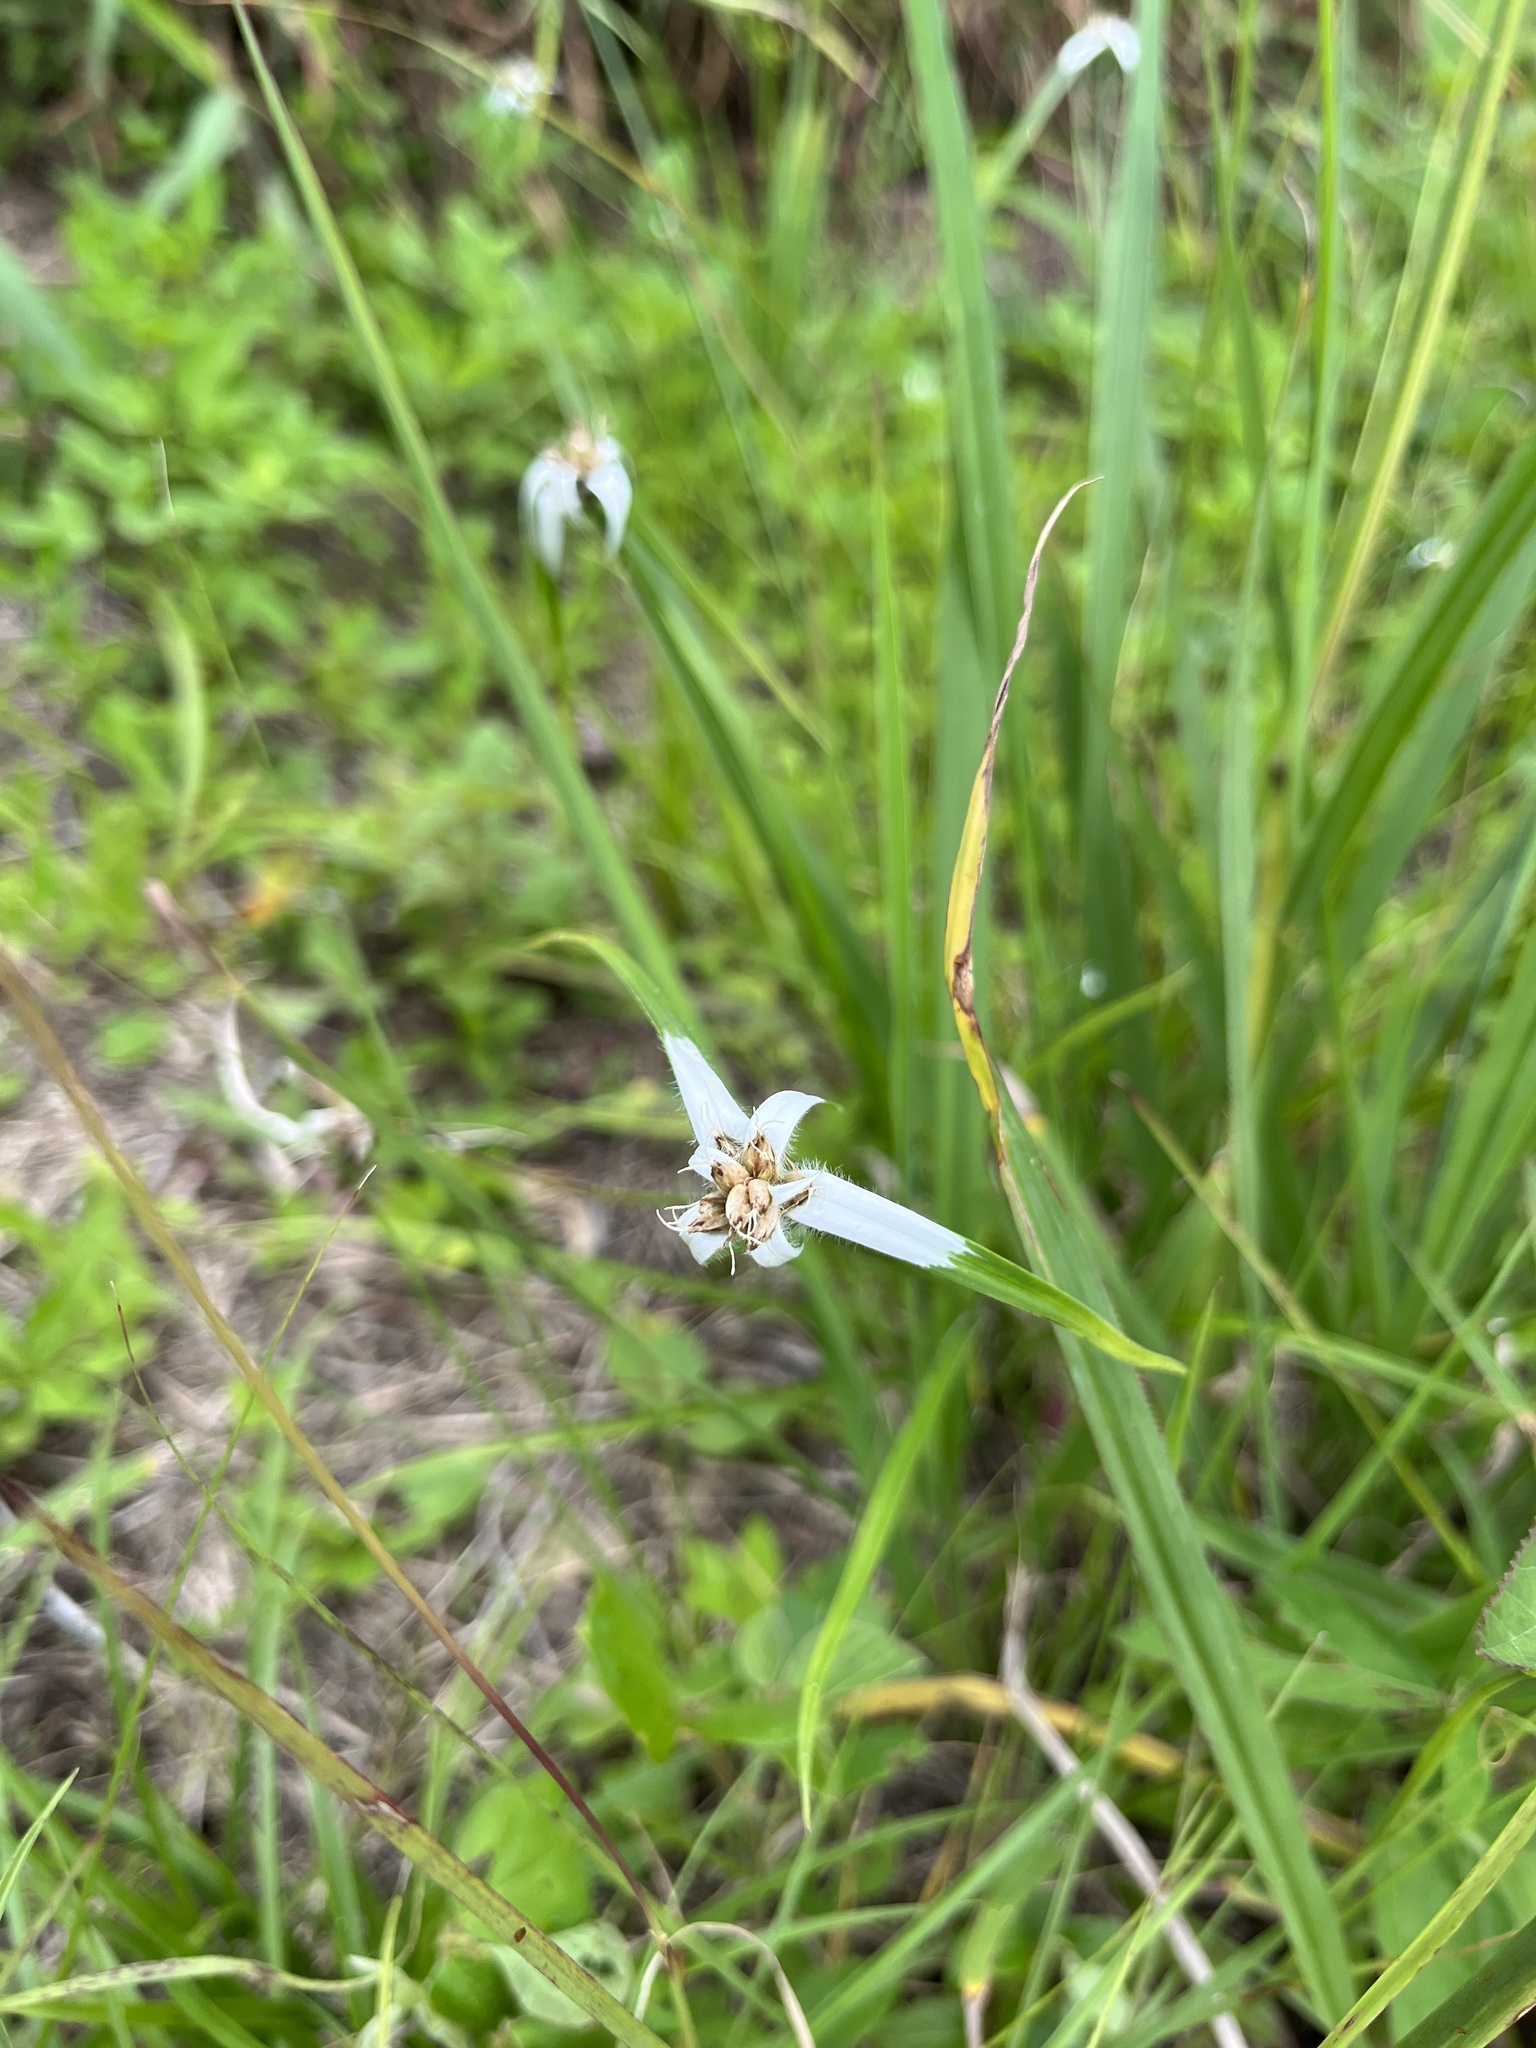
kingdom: Plantae
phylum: Tracheophyta
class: Liliopsida
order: Poales
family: Cyperaceae
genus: Rhynchospora
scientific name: Rhynchospora pura
